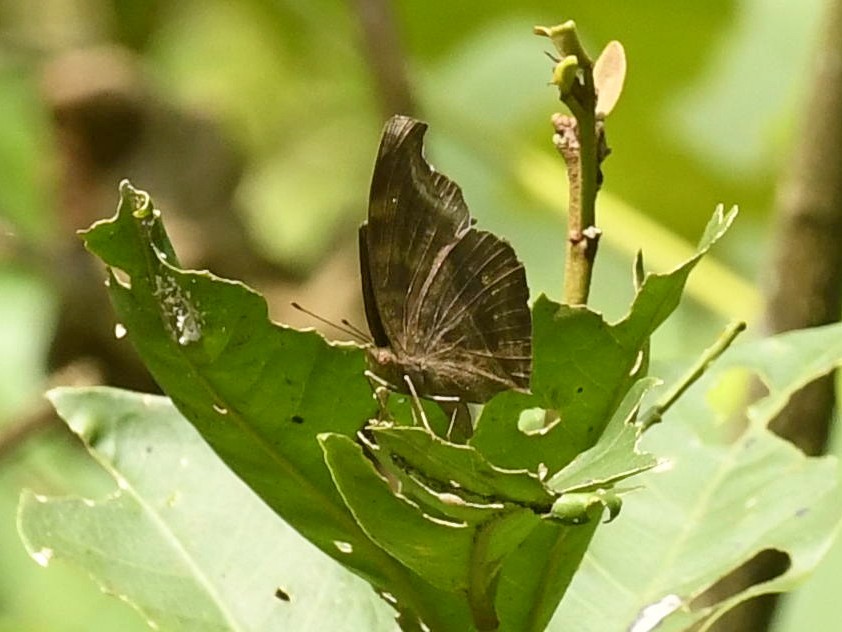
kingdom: Animalia
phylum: Arthropoda
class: Insecta
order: Lepidoptera
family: Nymphalidae
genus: Junonia
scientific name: Junonia iphita
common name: Chocolate pansy
